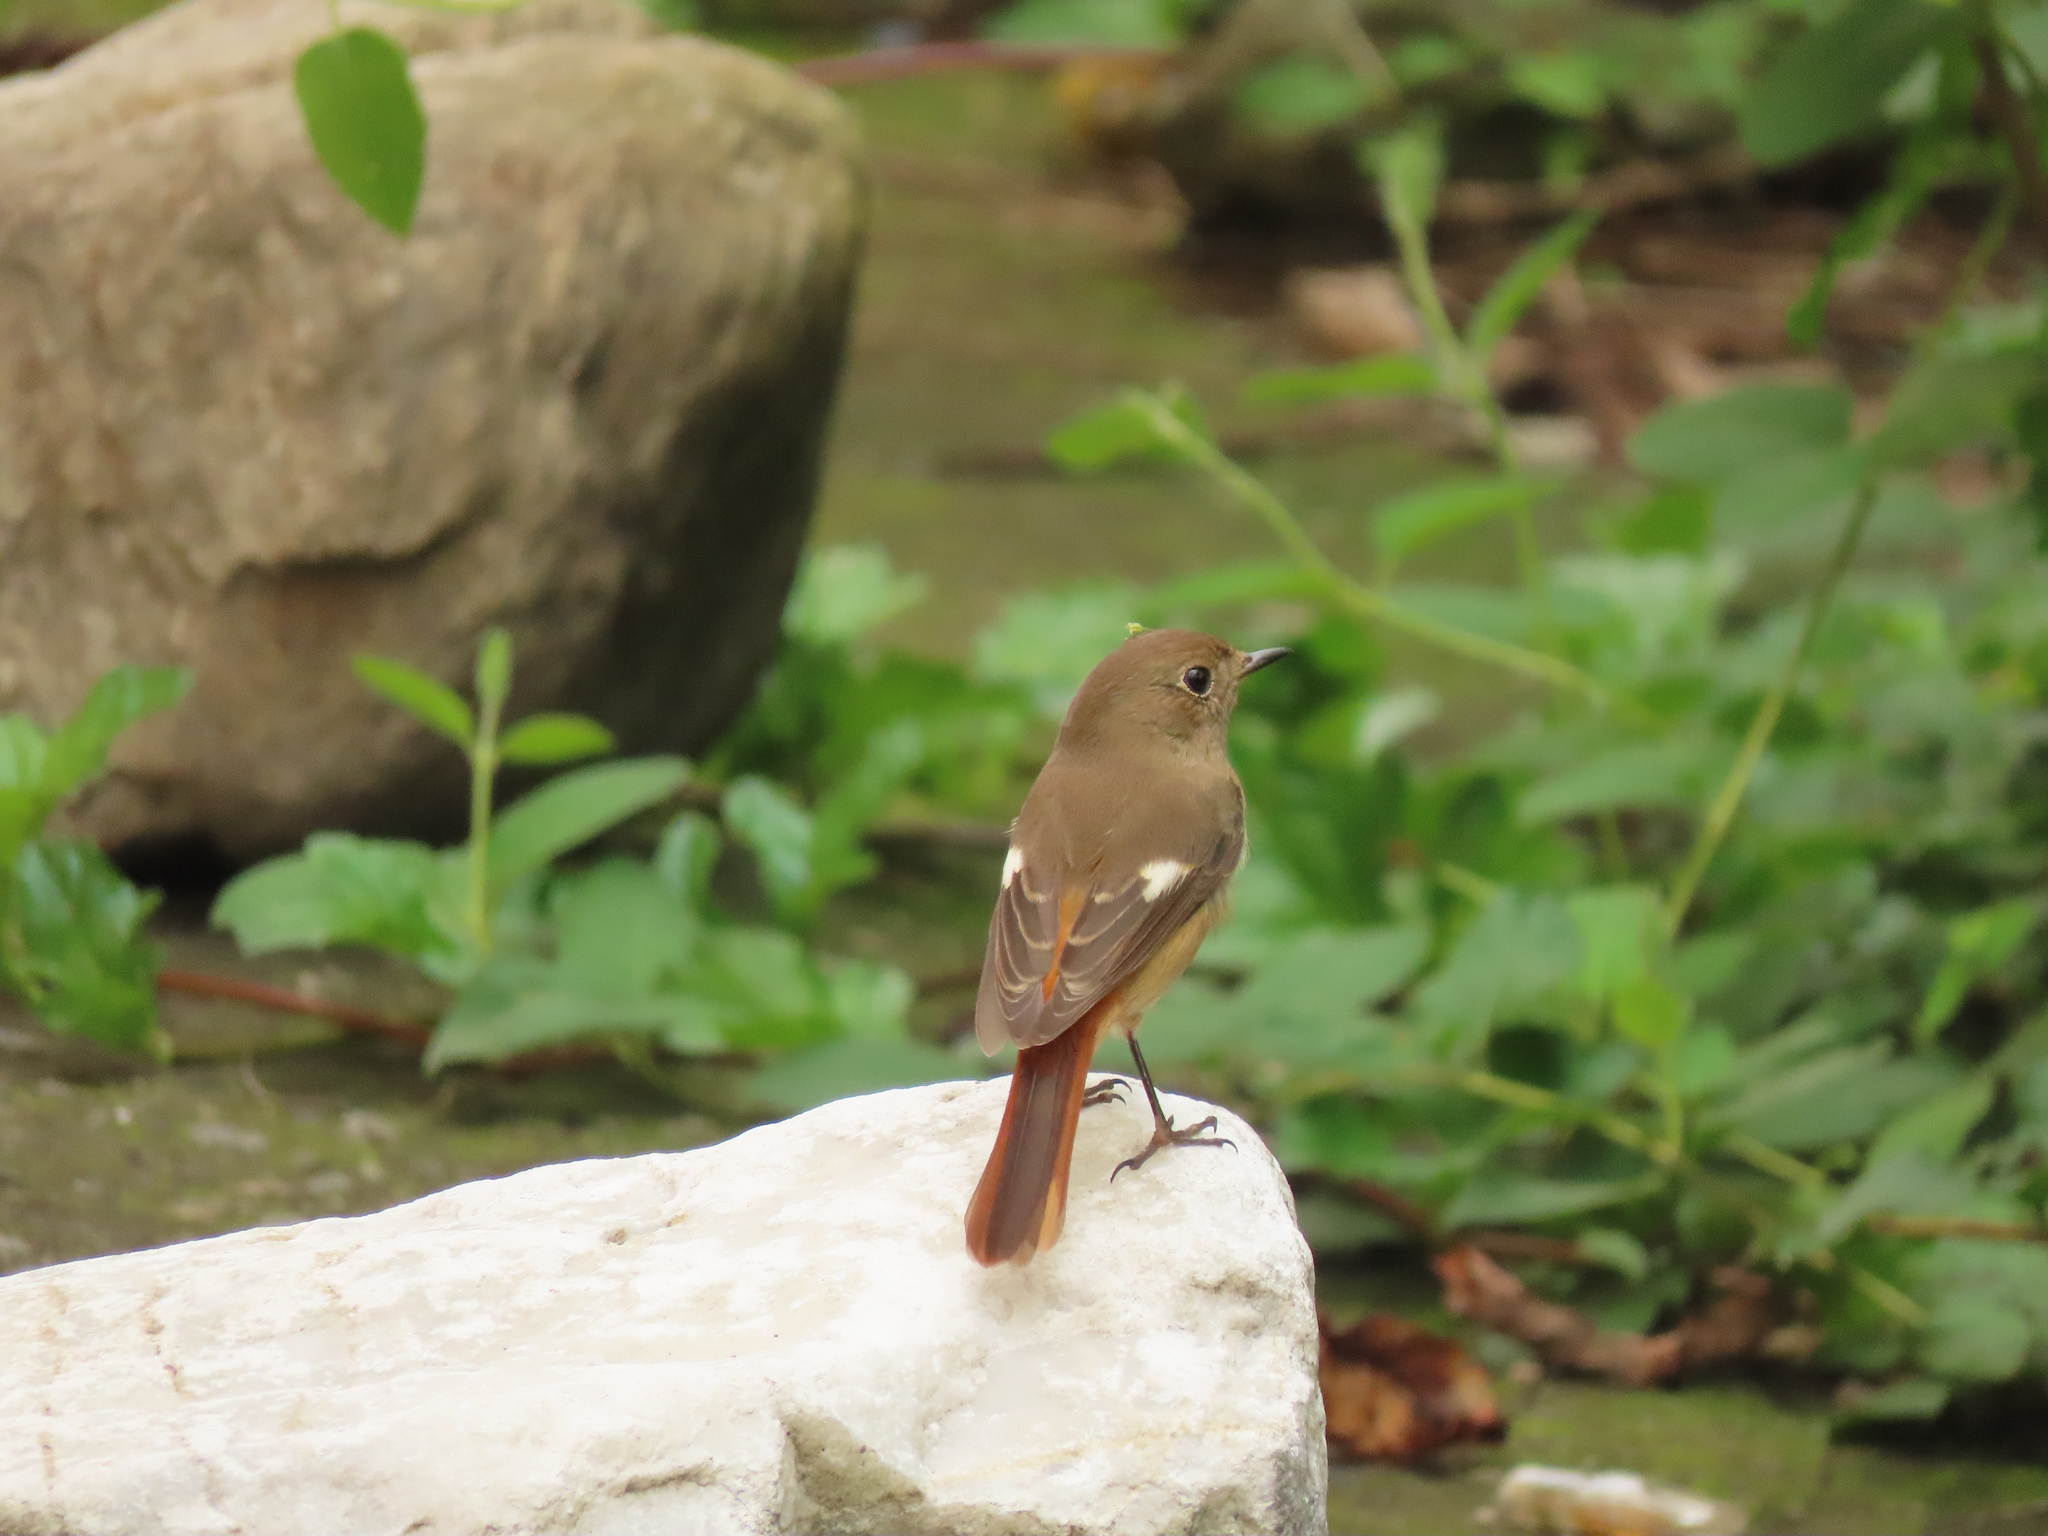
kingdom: Animalia
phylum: Chordata
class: Aves
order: Passeriformes
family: Muscicapidae
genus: Phoenicurus
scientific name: Phoenicurus auroreus
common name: Daurian redstart
